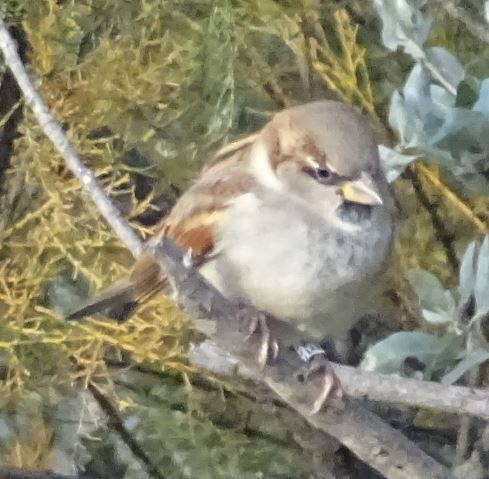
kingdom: Animalia
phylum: Chordata
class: Aves
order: Passeriformes
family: Passeridae
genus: Passer
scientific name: Passer domesticus
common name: House sparrow
